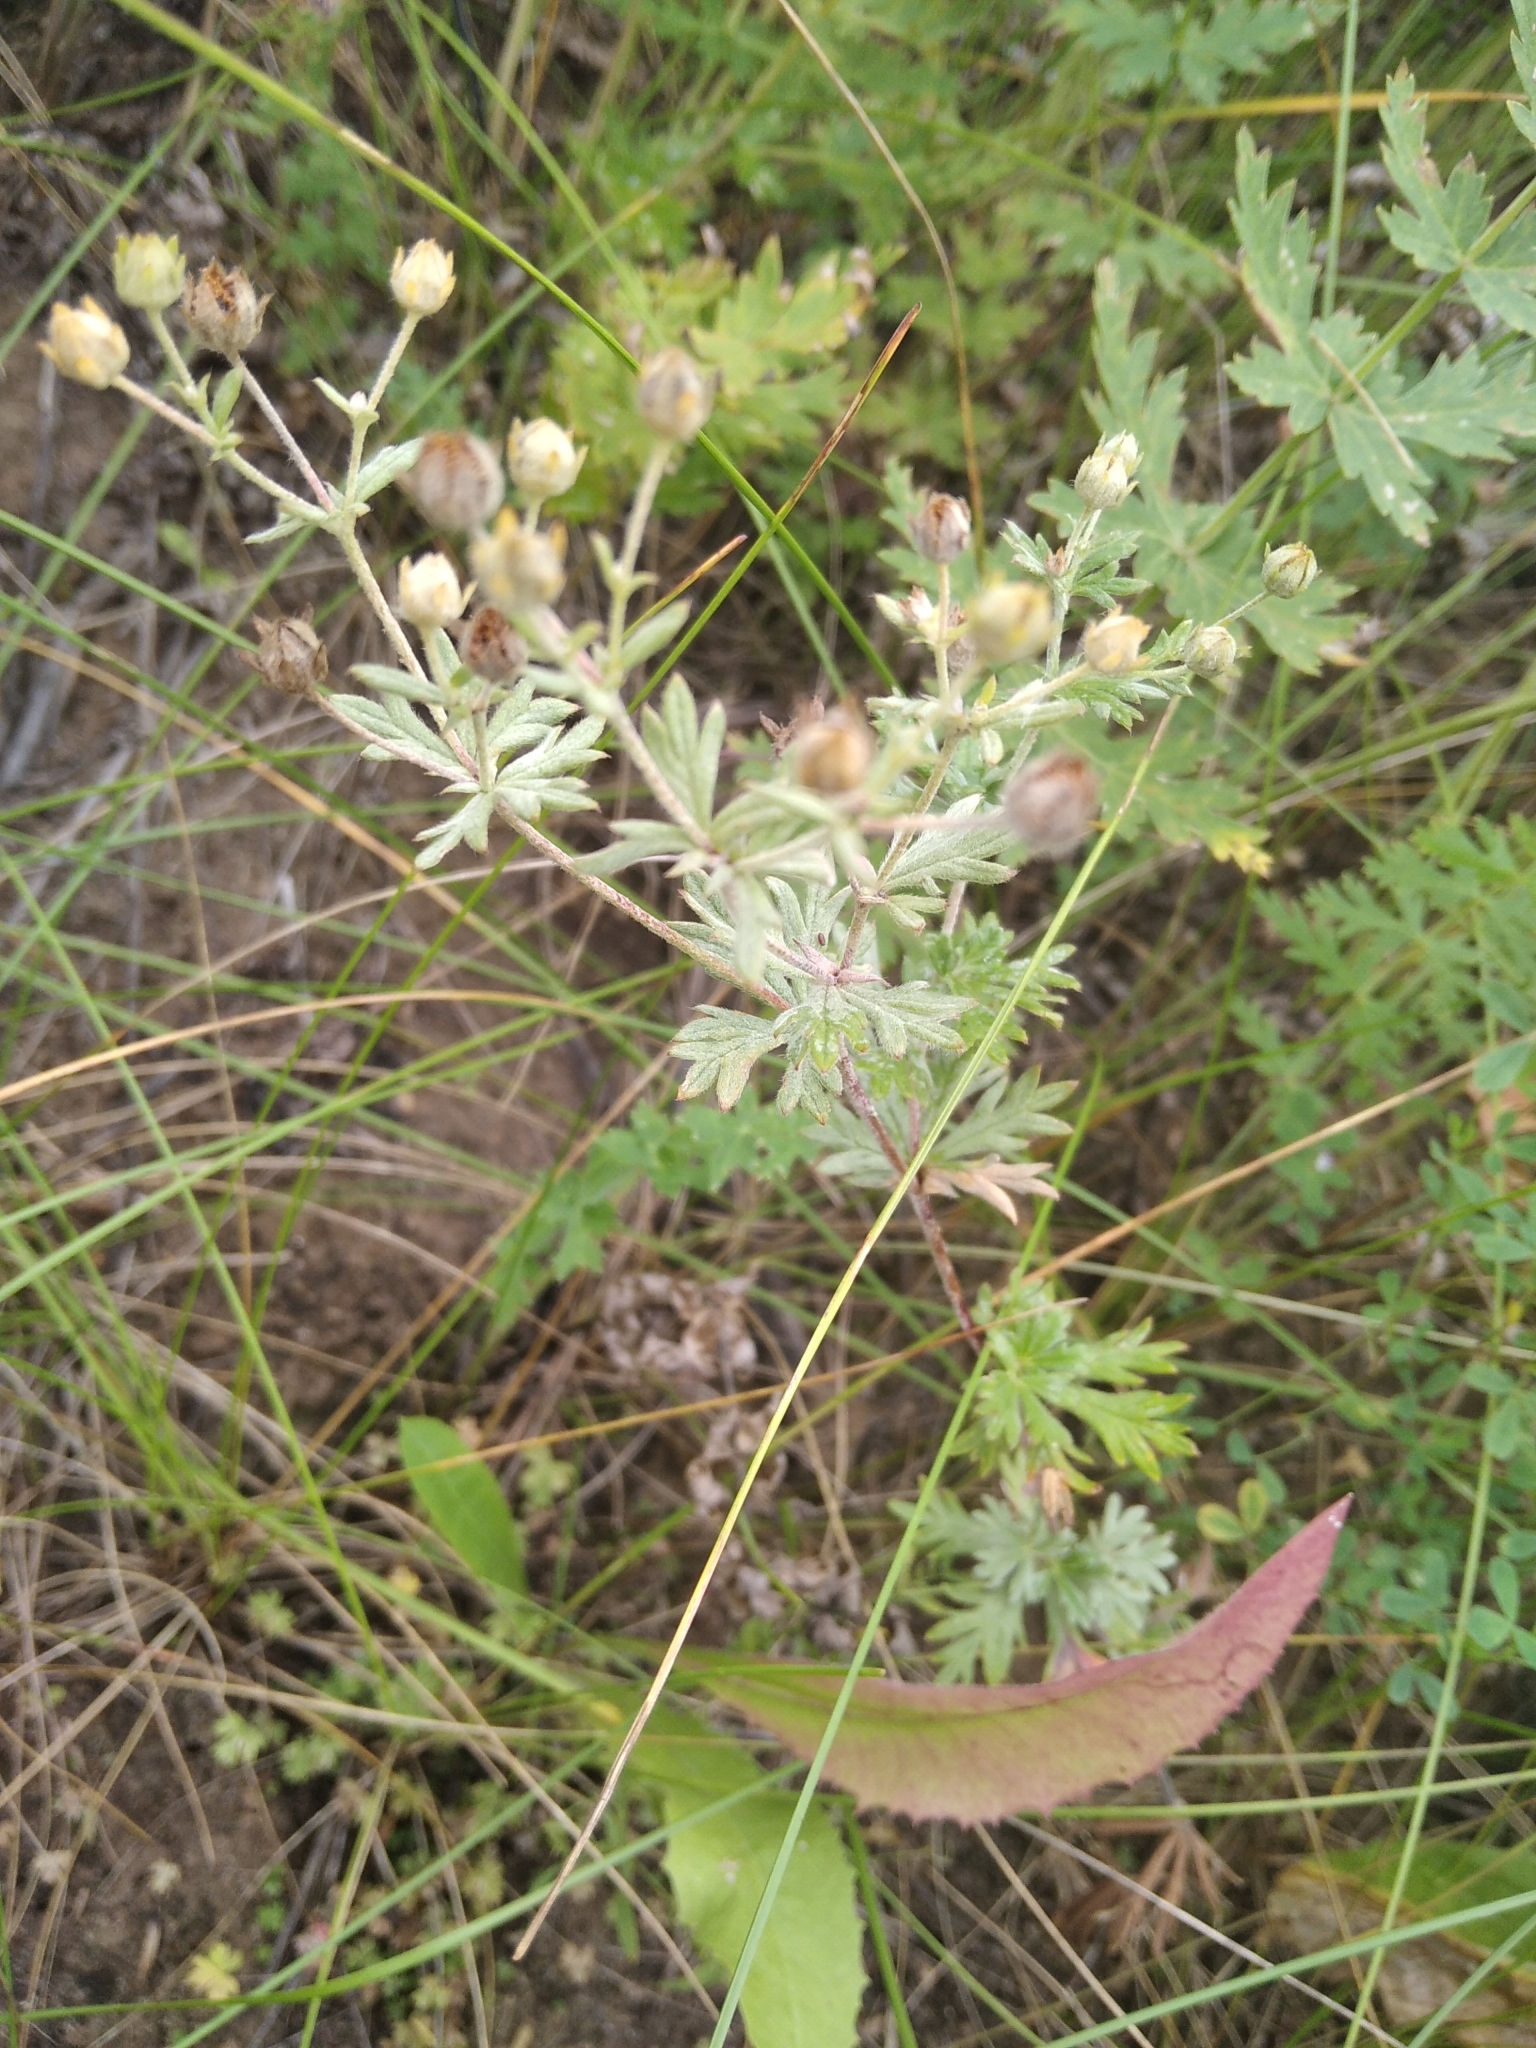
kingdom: Plantae
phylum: Tracheophyta
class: Magnoliopsida
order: Rosales
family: Rosaceae
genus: Potentilla
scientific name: Potentilla argentea
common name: Hoary cinquefoil
